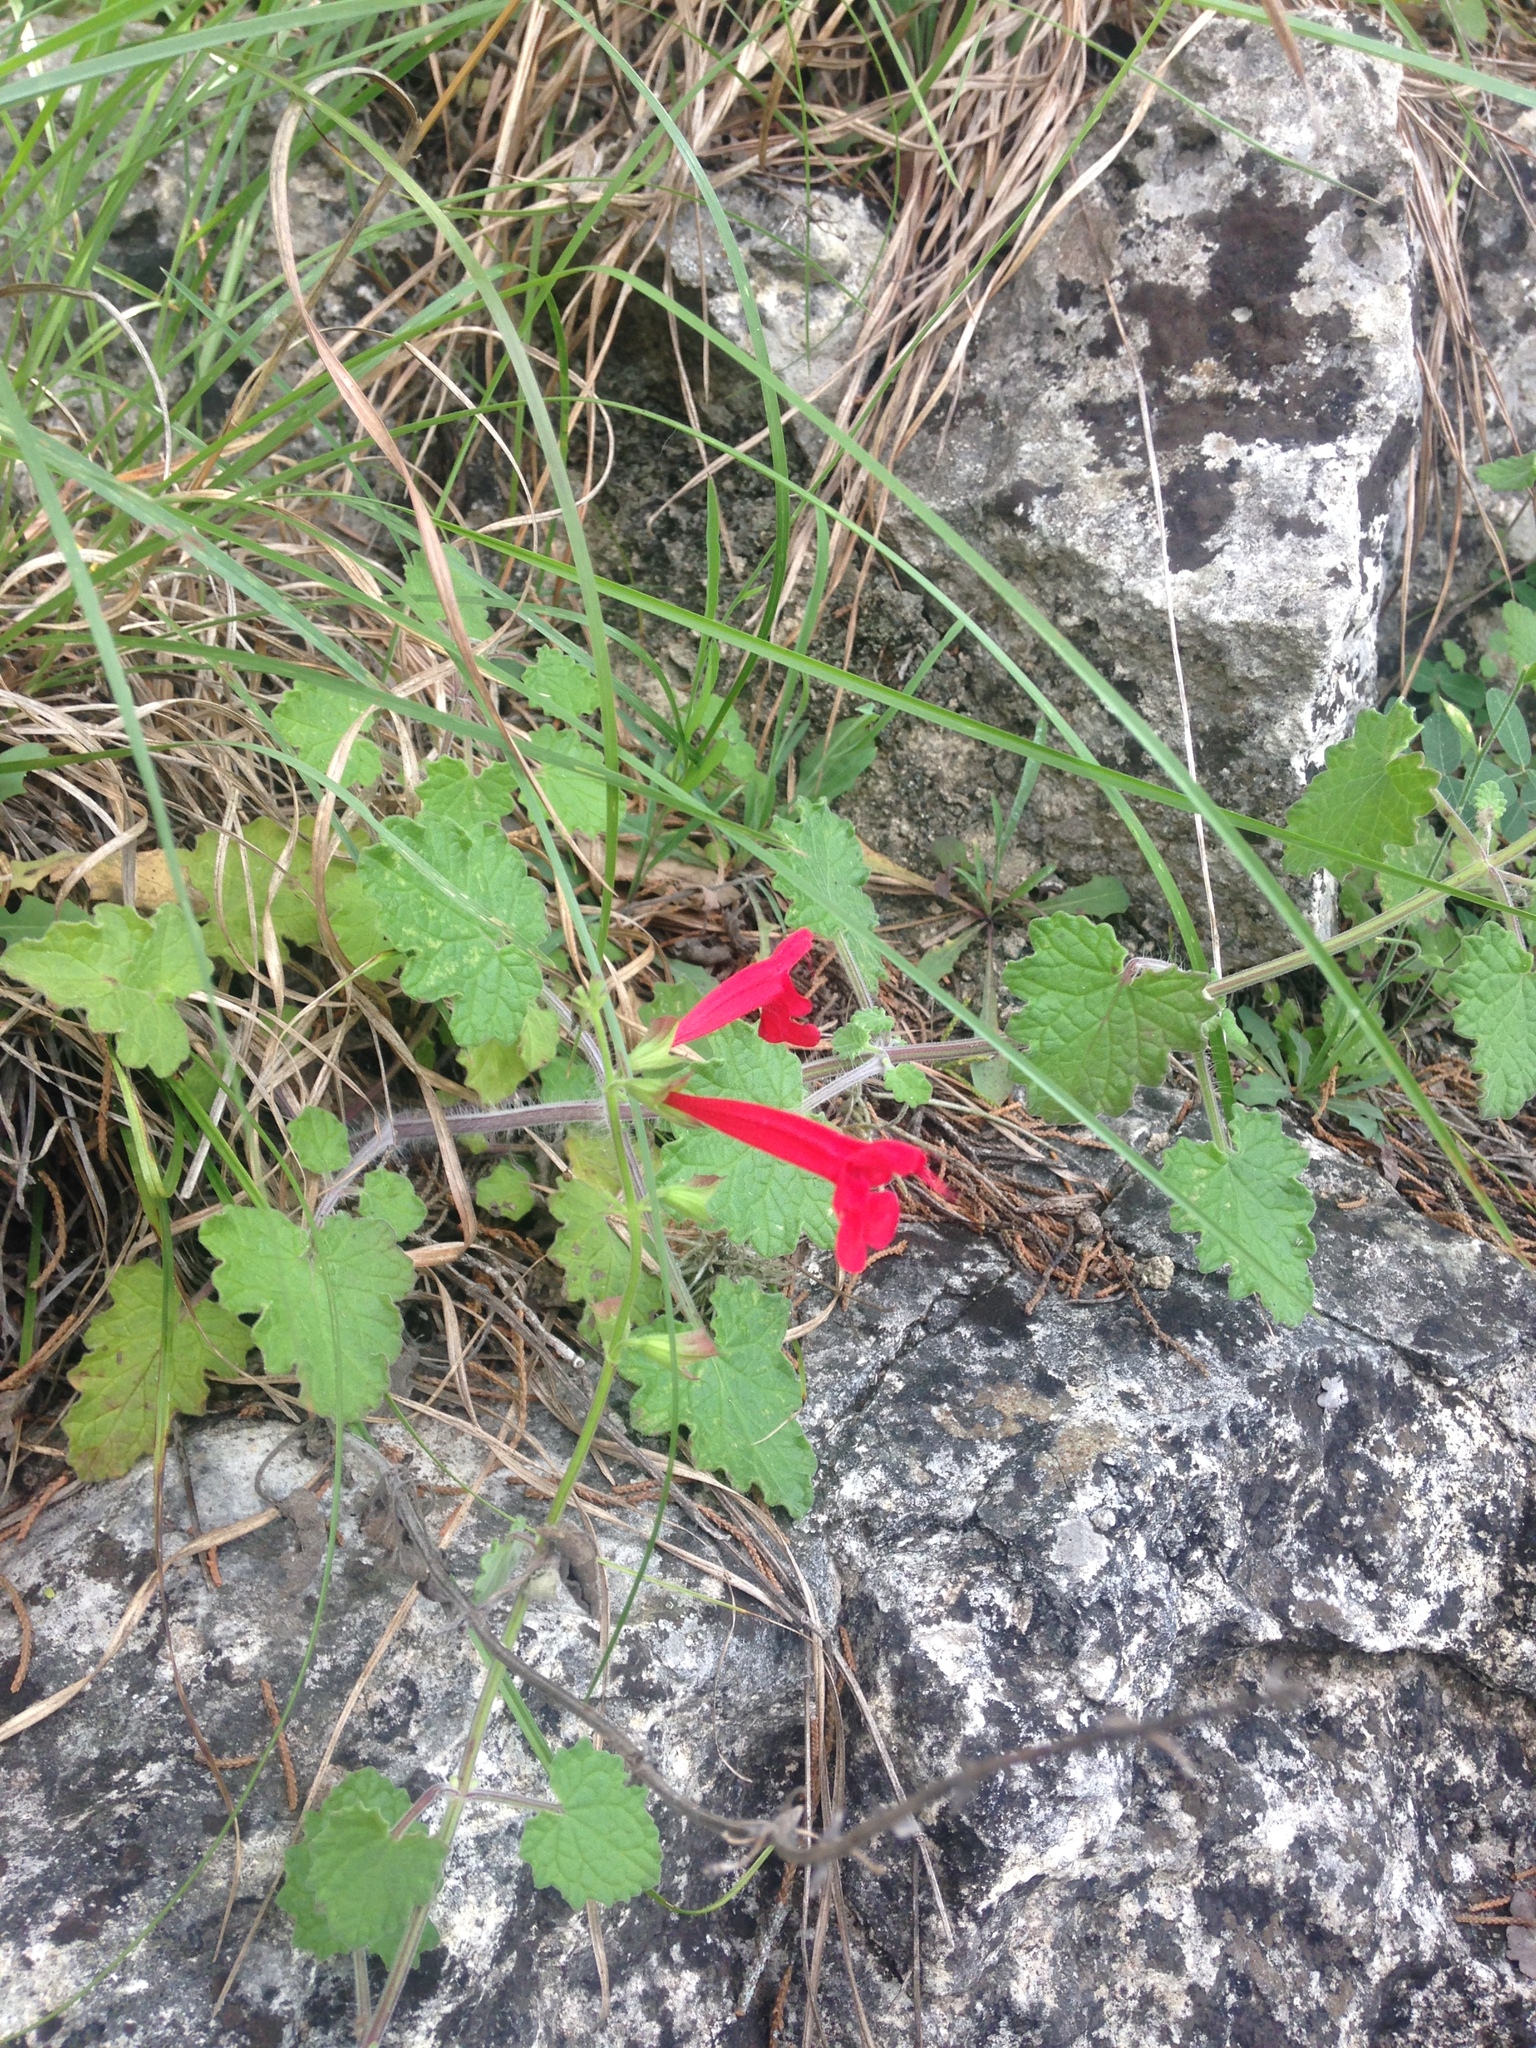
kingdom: Plantae
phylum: Tracheophyta
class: Magnoliopsida
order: Lamiales
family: Lamiaceae
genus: Salvia
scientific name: Salvia roemeriana
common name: Cedar sage
